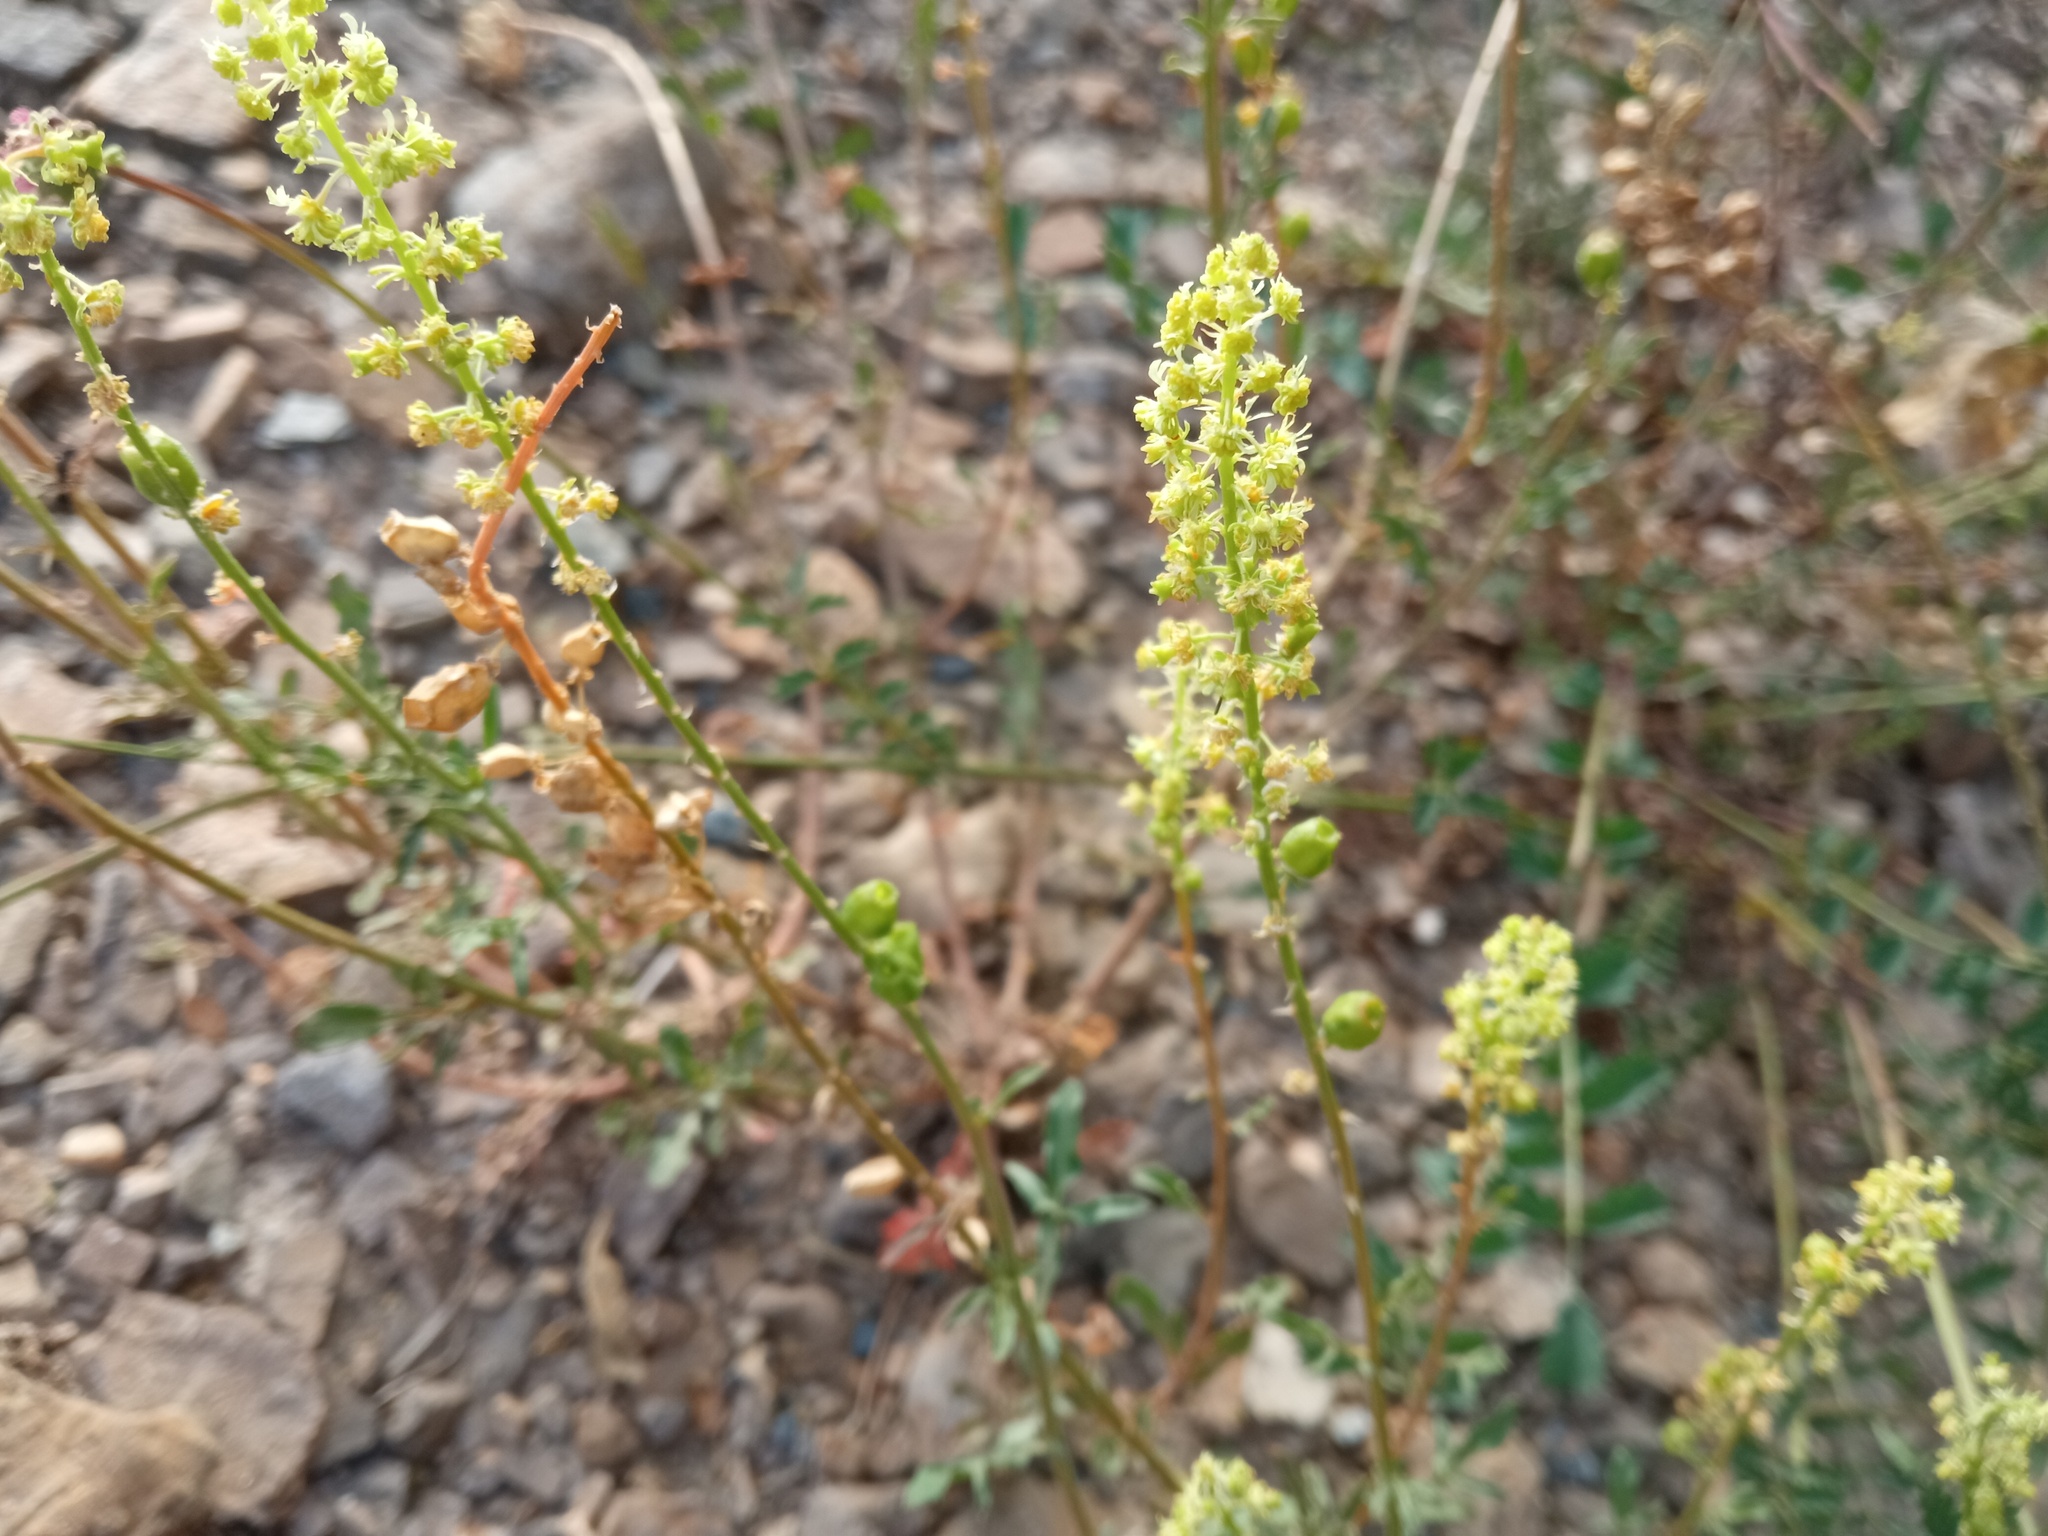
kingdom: Plantae
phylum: Tracheophyta
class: Magnoliopsida
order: Brassicales
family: Resedaceae
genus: Reseda
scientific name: Reseda lutea
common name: Wild mignonette
